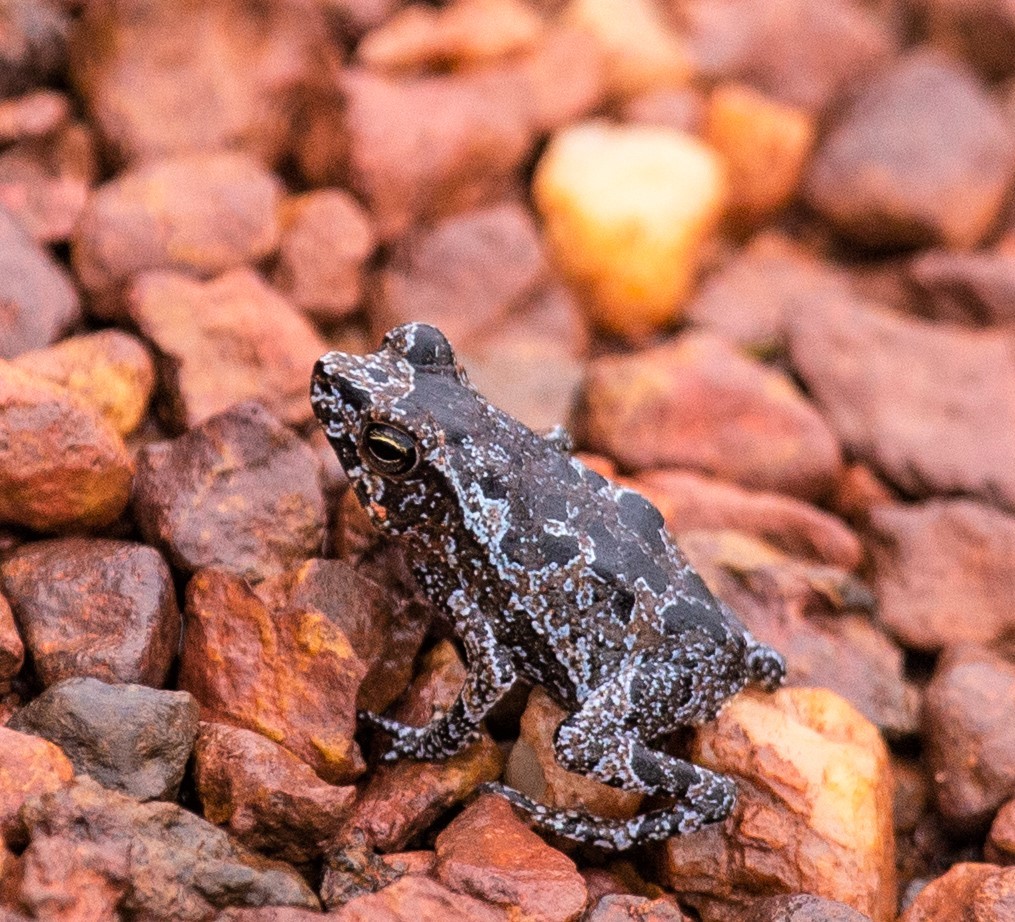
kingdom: Animalia
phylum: Chordata
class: Amphibia
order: Anura
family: Bufonidae
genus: Rhinella
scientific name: Rhinella margaritifera
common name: Mitred toad
